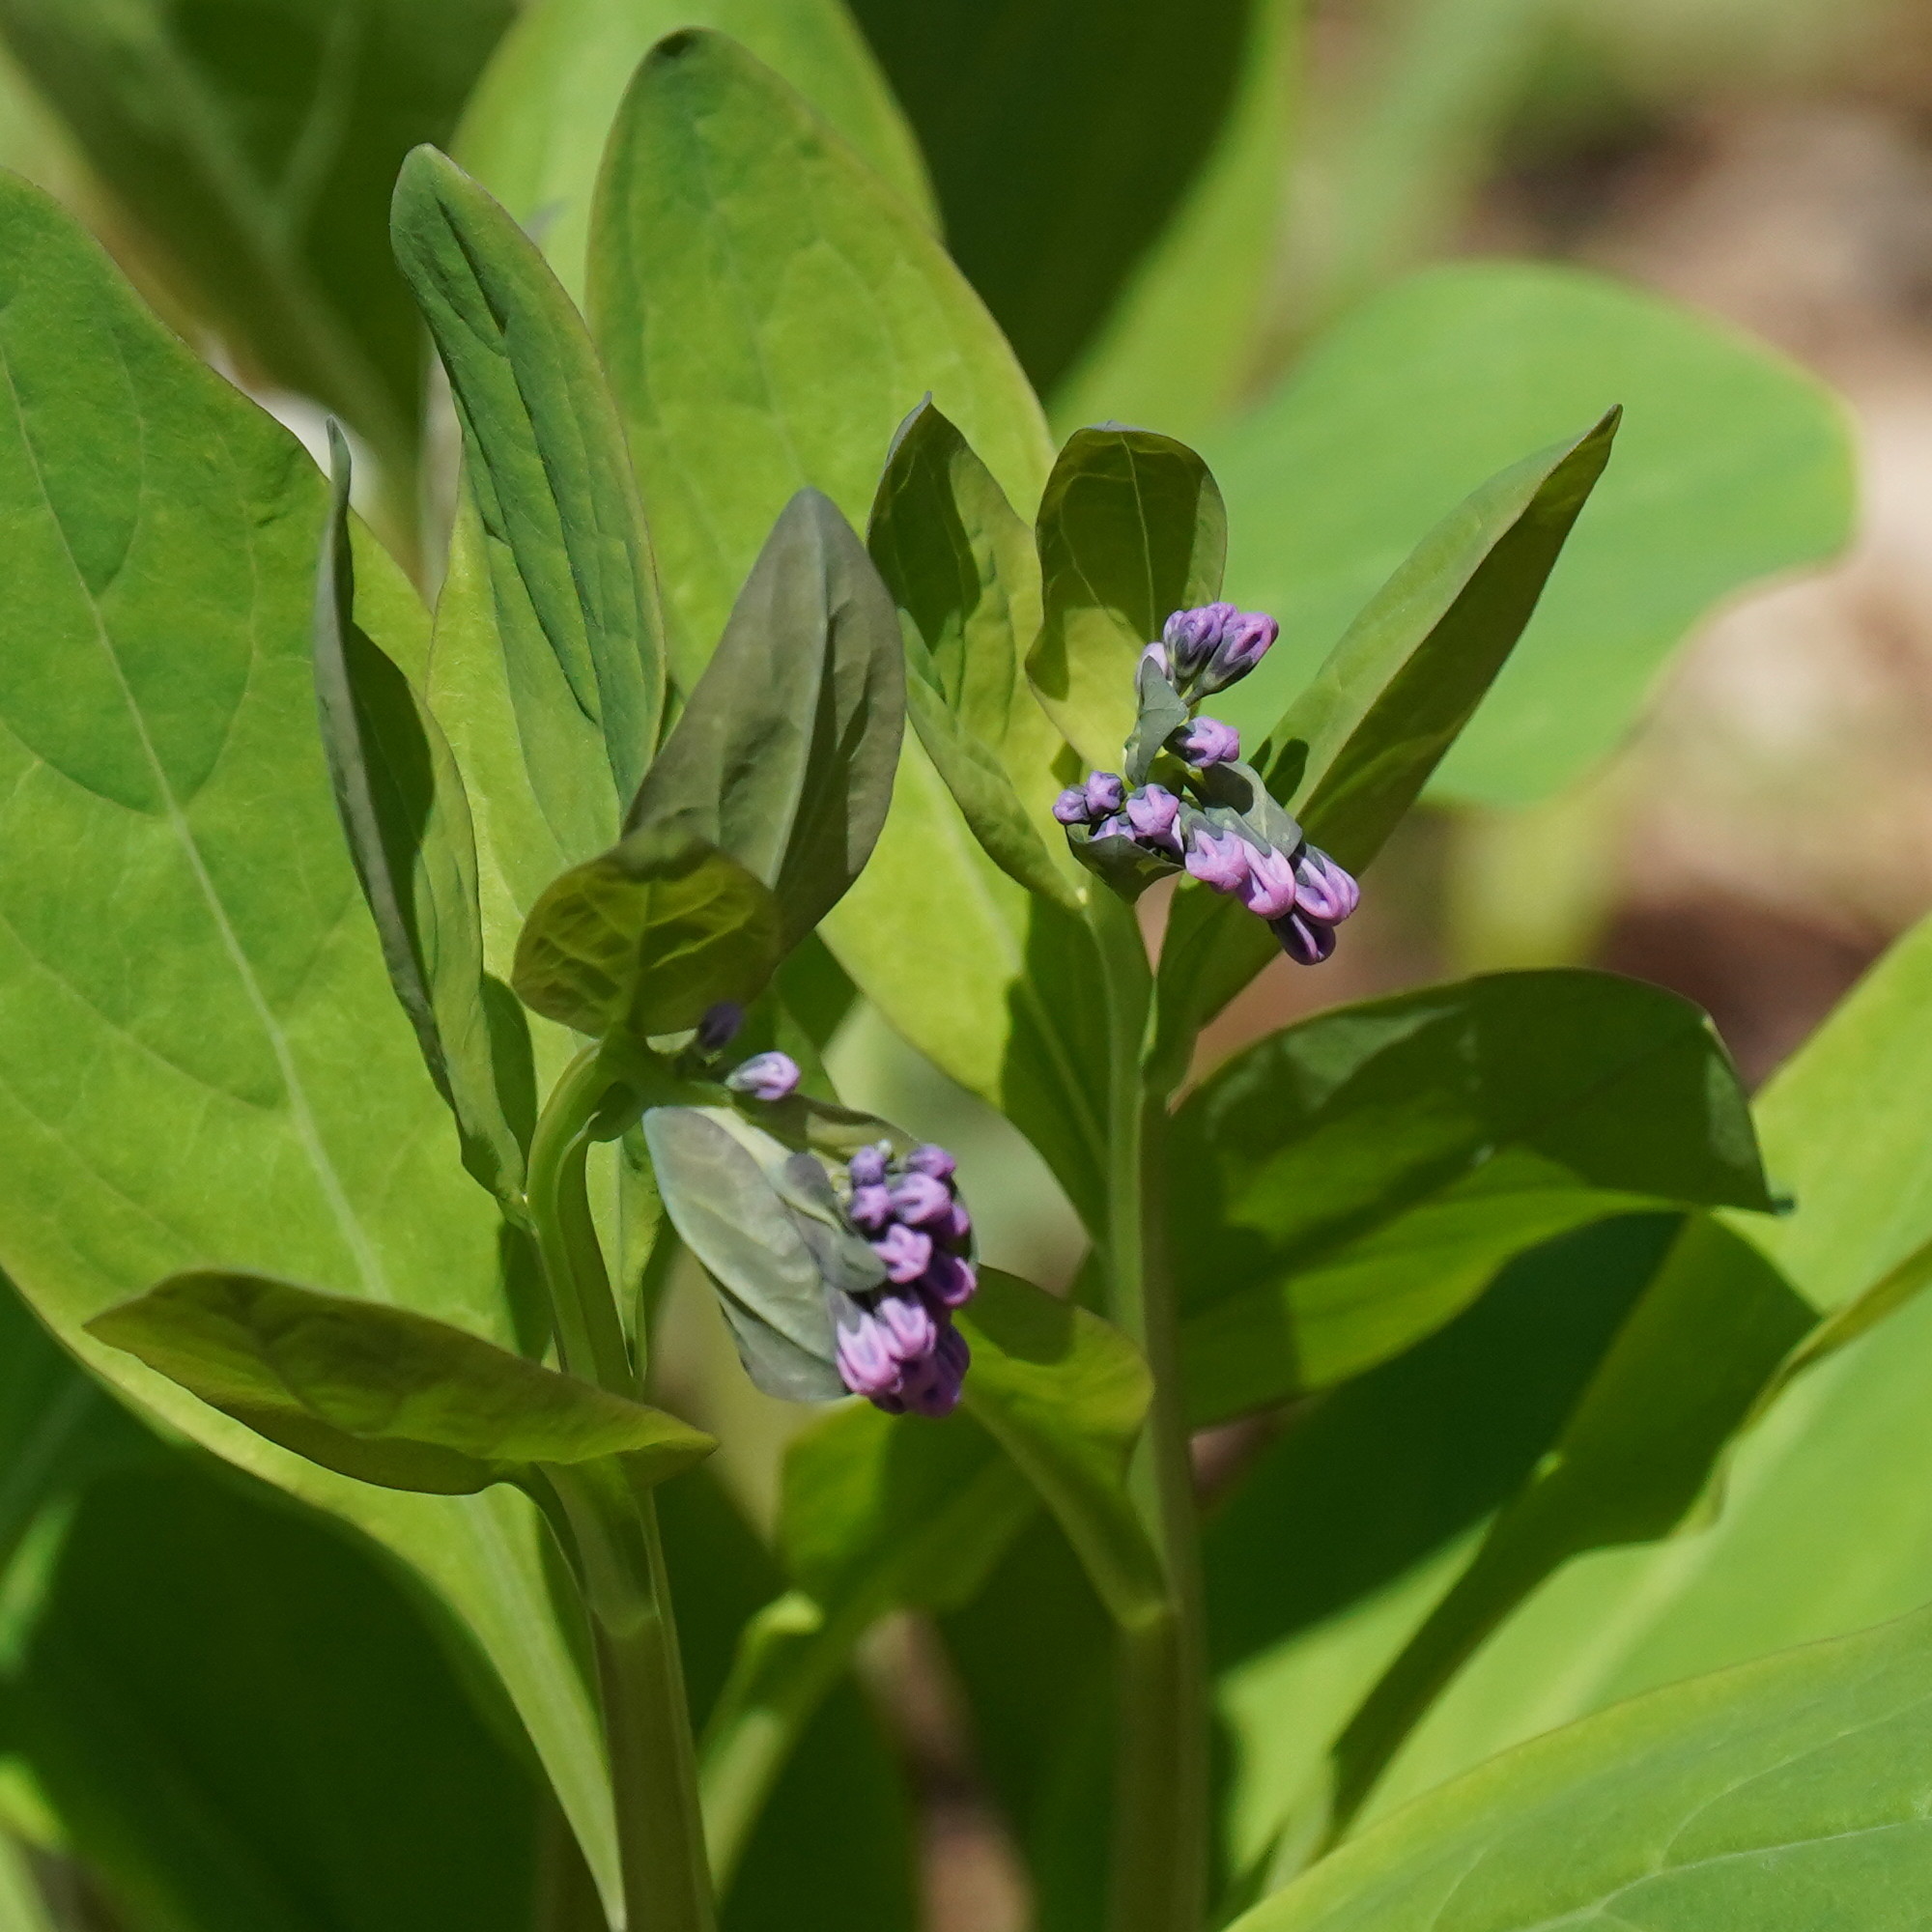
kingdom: Plantae
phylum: Tracheophyta
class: Magnoliopsida
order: Boraginales
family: Boraginaceae
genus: Mertensia
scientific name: Mertensia virginica
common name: Virginia bluebells
